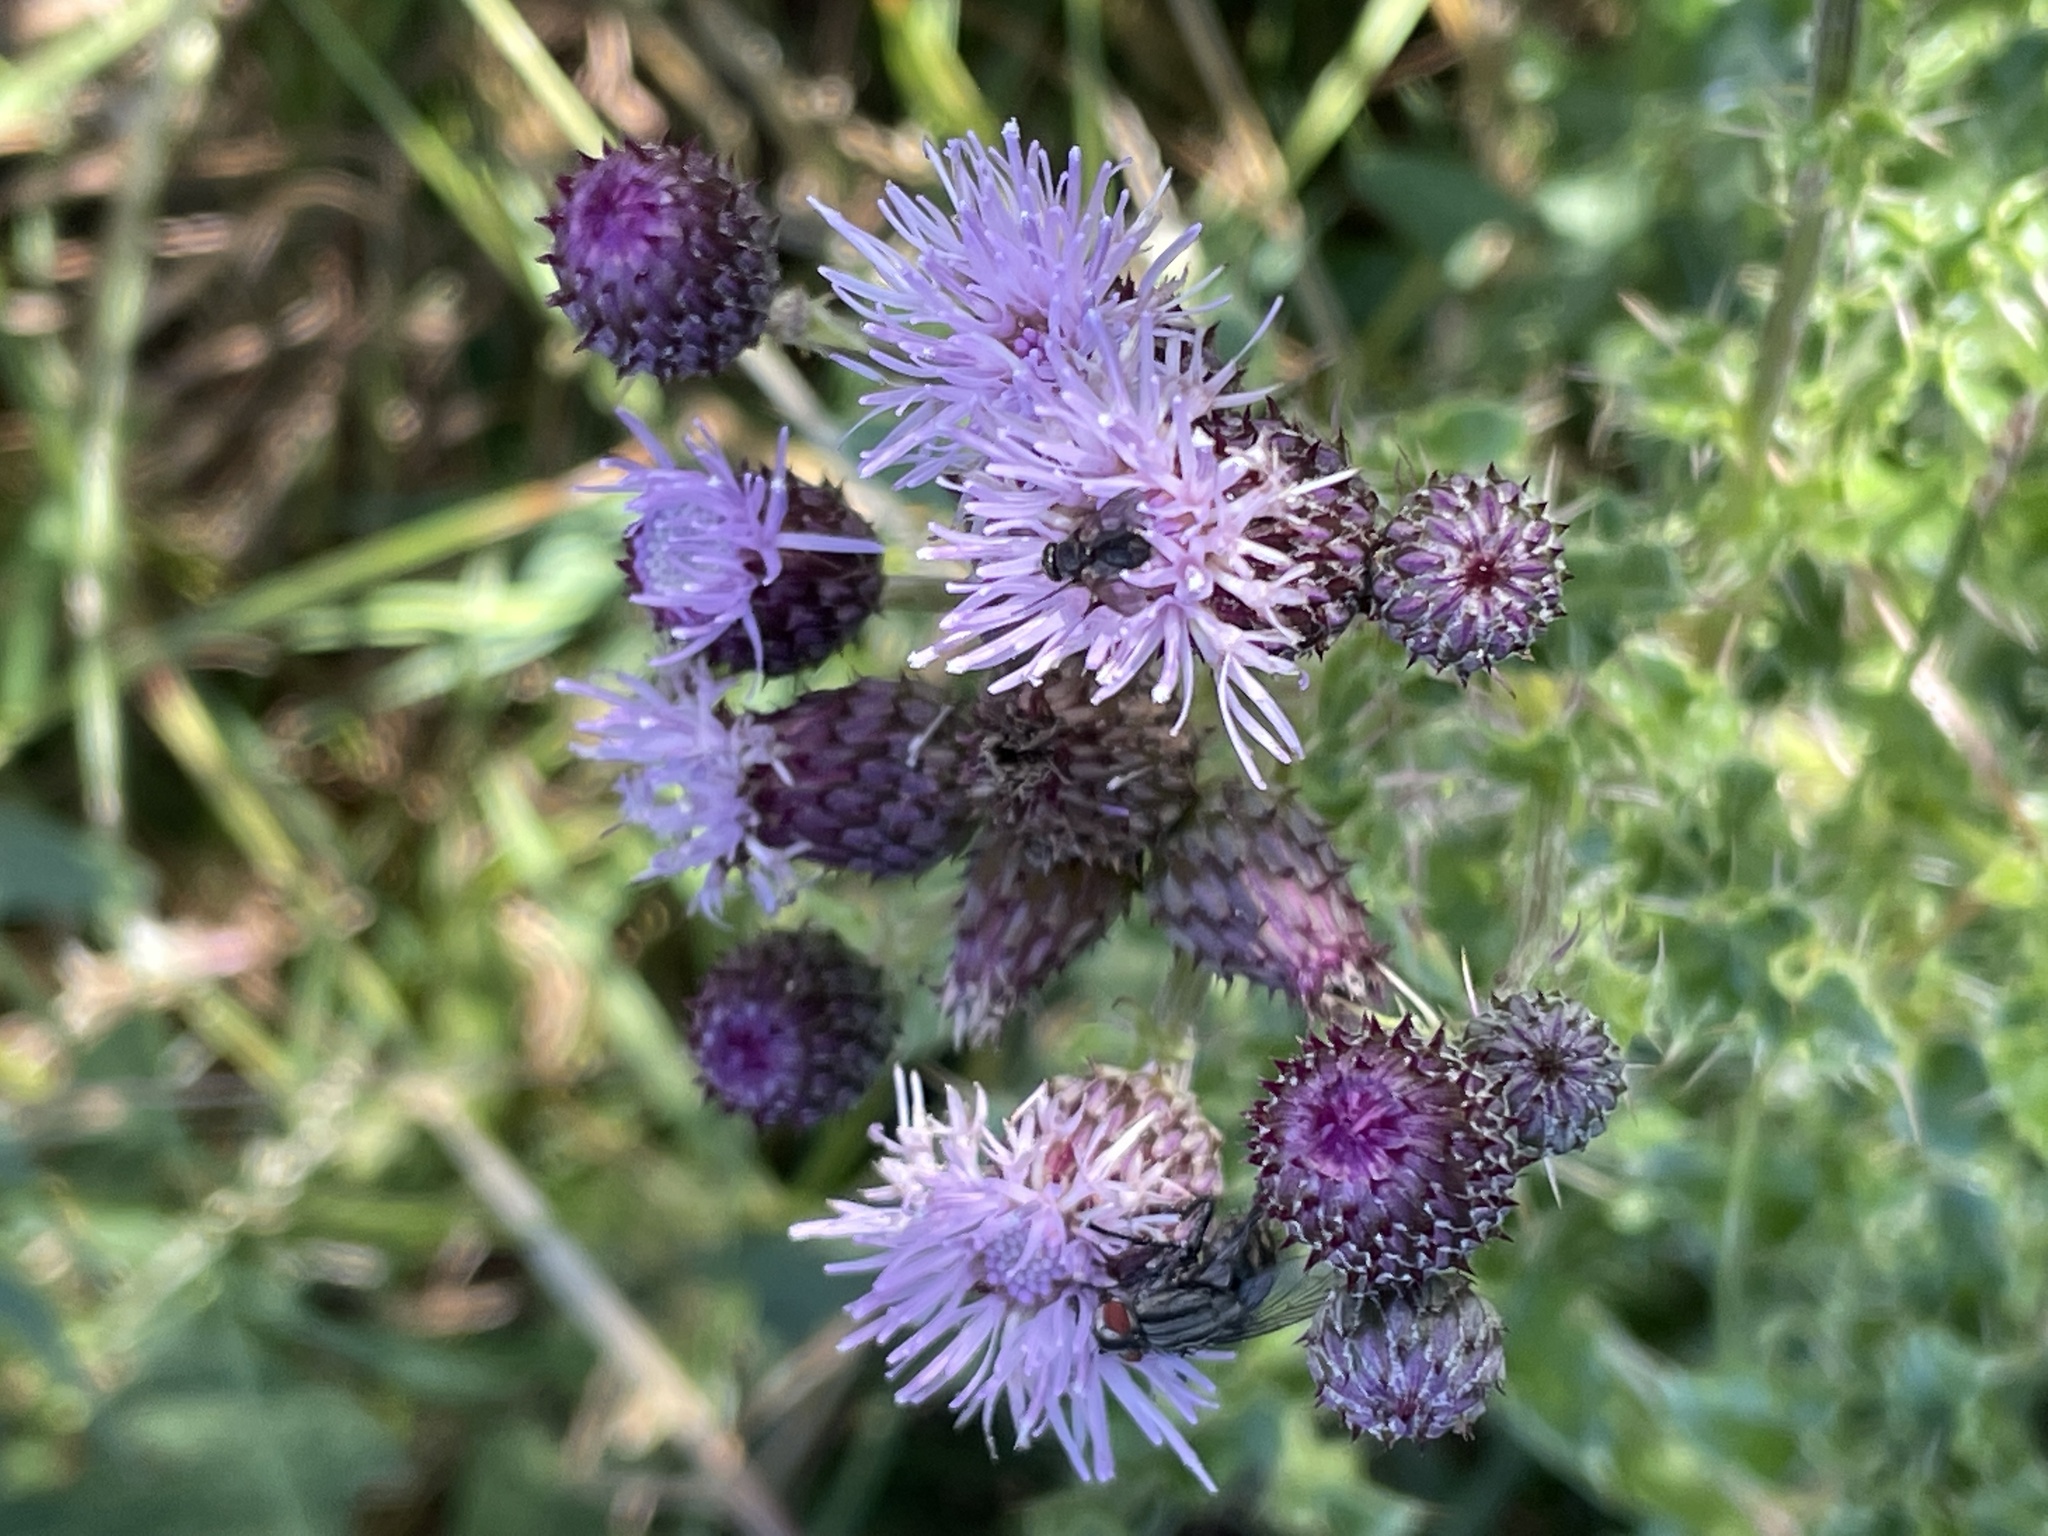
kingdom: Plantae
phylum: Tracheophyta
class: Magnoliopsida
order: Asterales
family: Asteraceae
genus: Cirsium
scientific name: Cirsium arvense
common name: Creeping thistle
